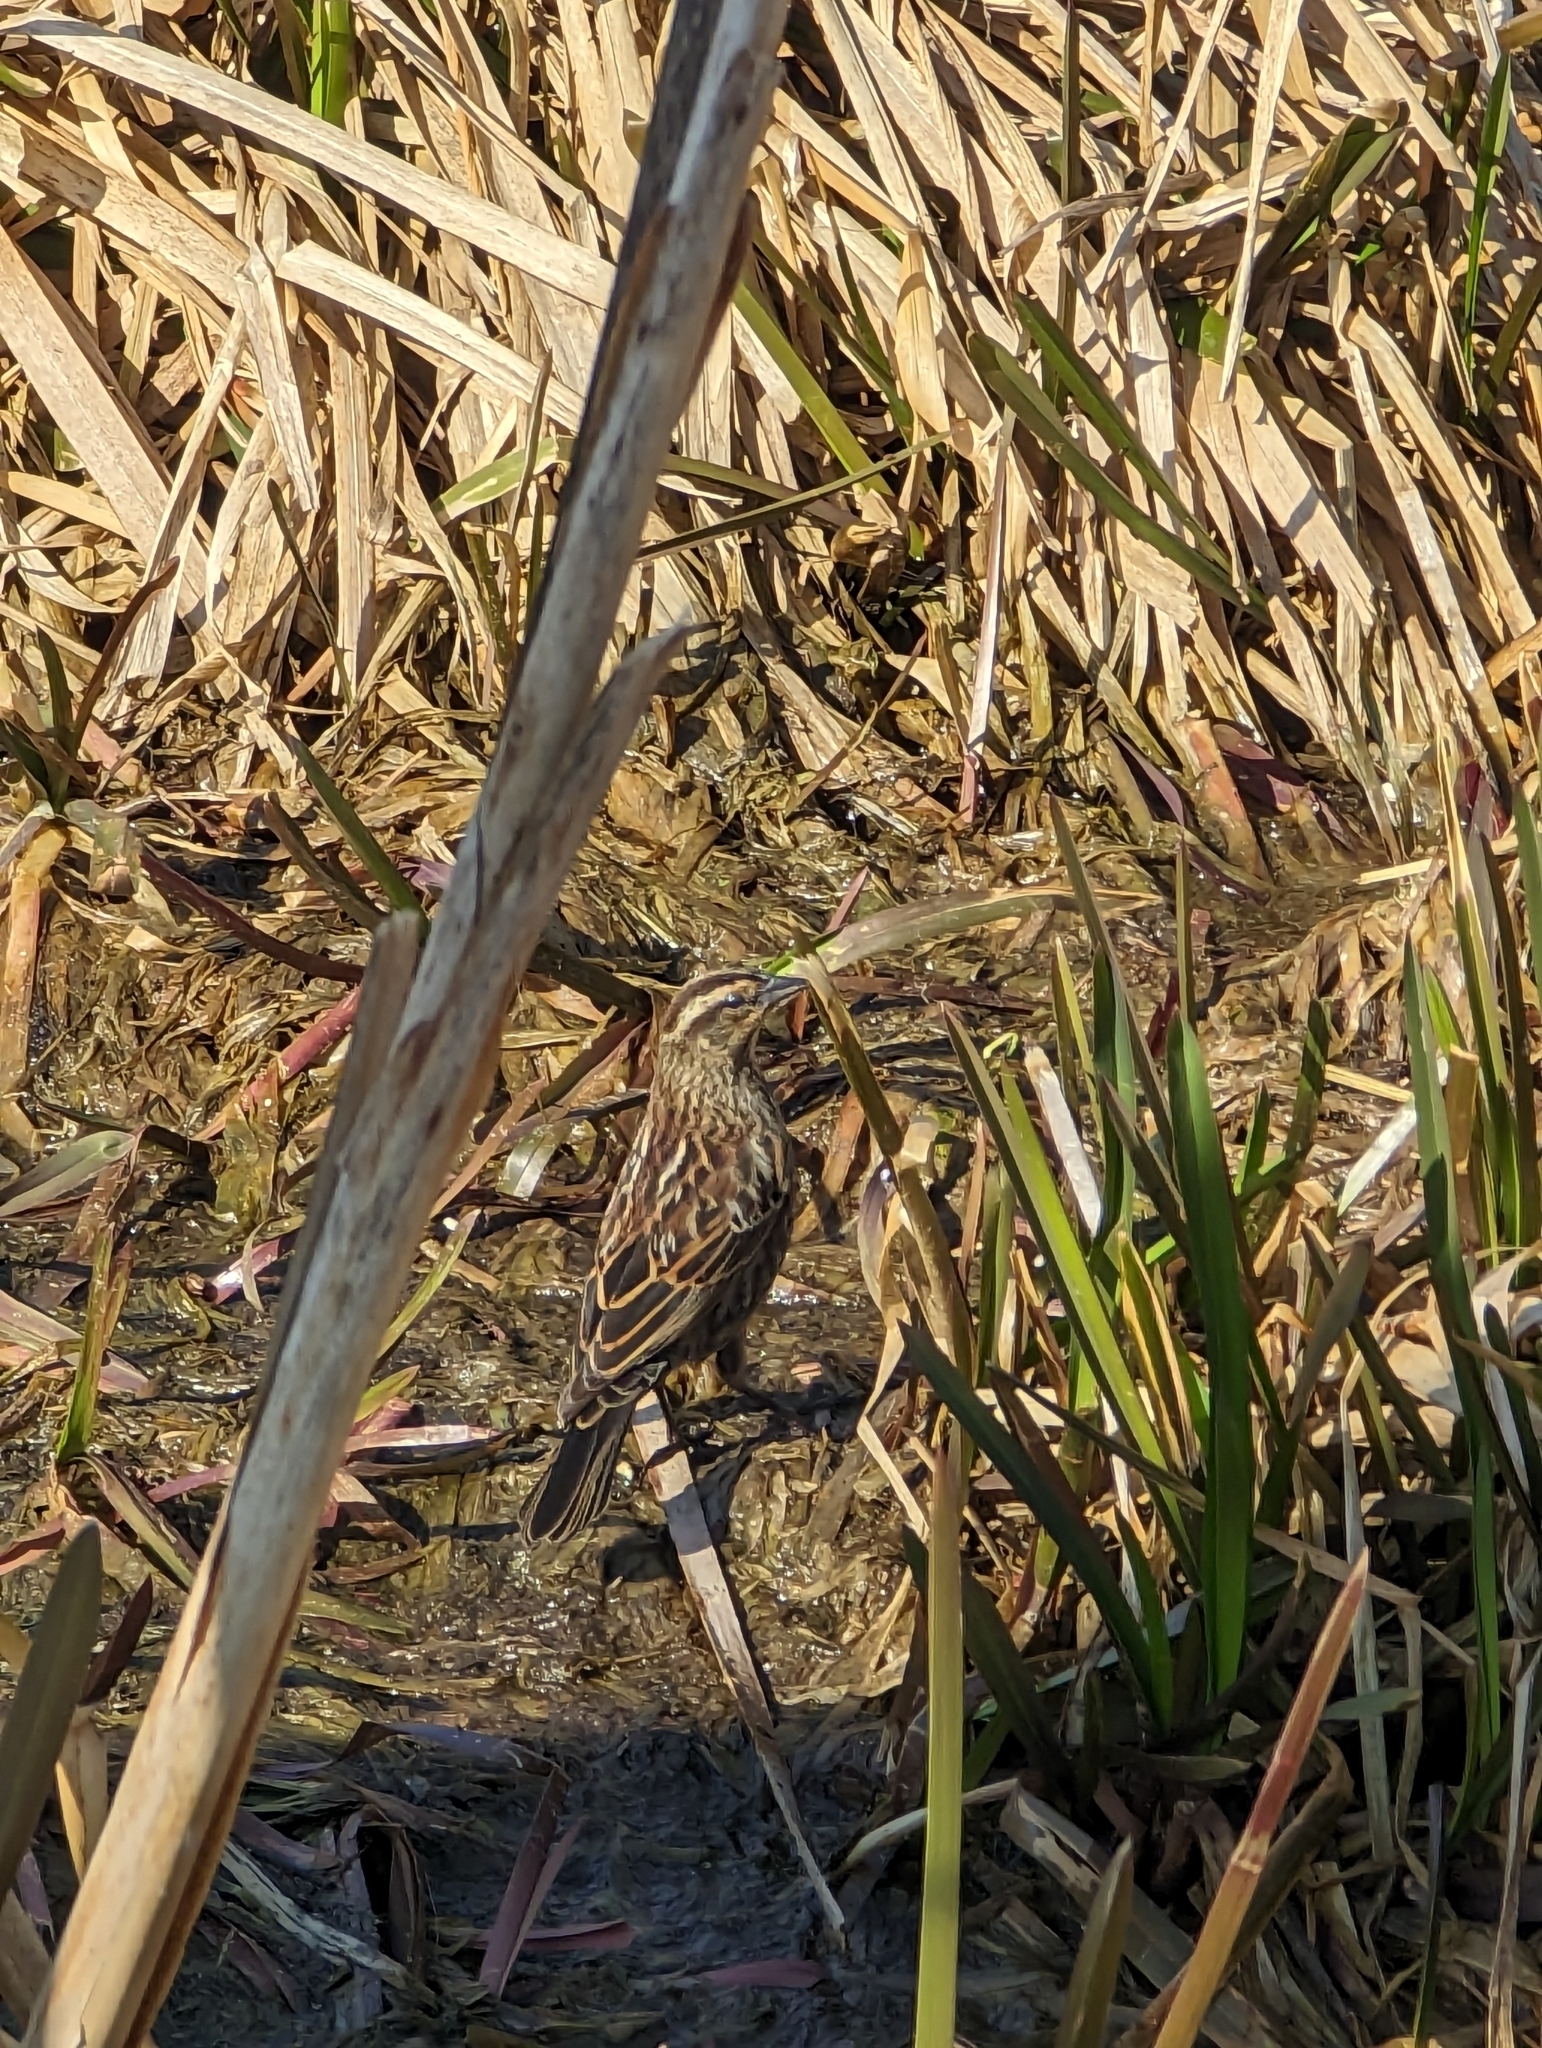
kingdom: Animalia
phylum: Chordata
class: Aves
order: Passeriformes
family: Icteridae
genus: Agelaius
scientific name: Agelaius phoeniceus
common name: Red-winged blackbird
